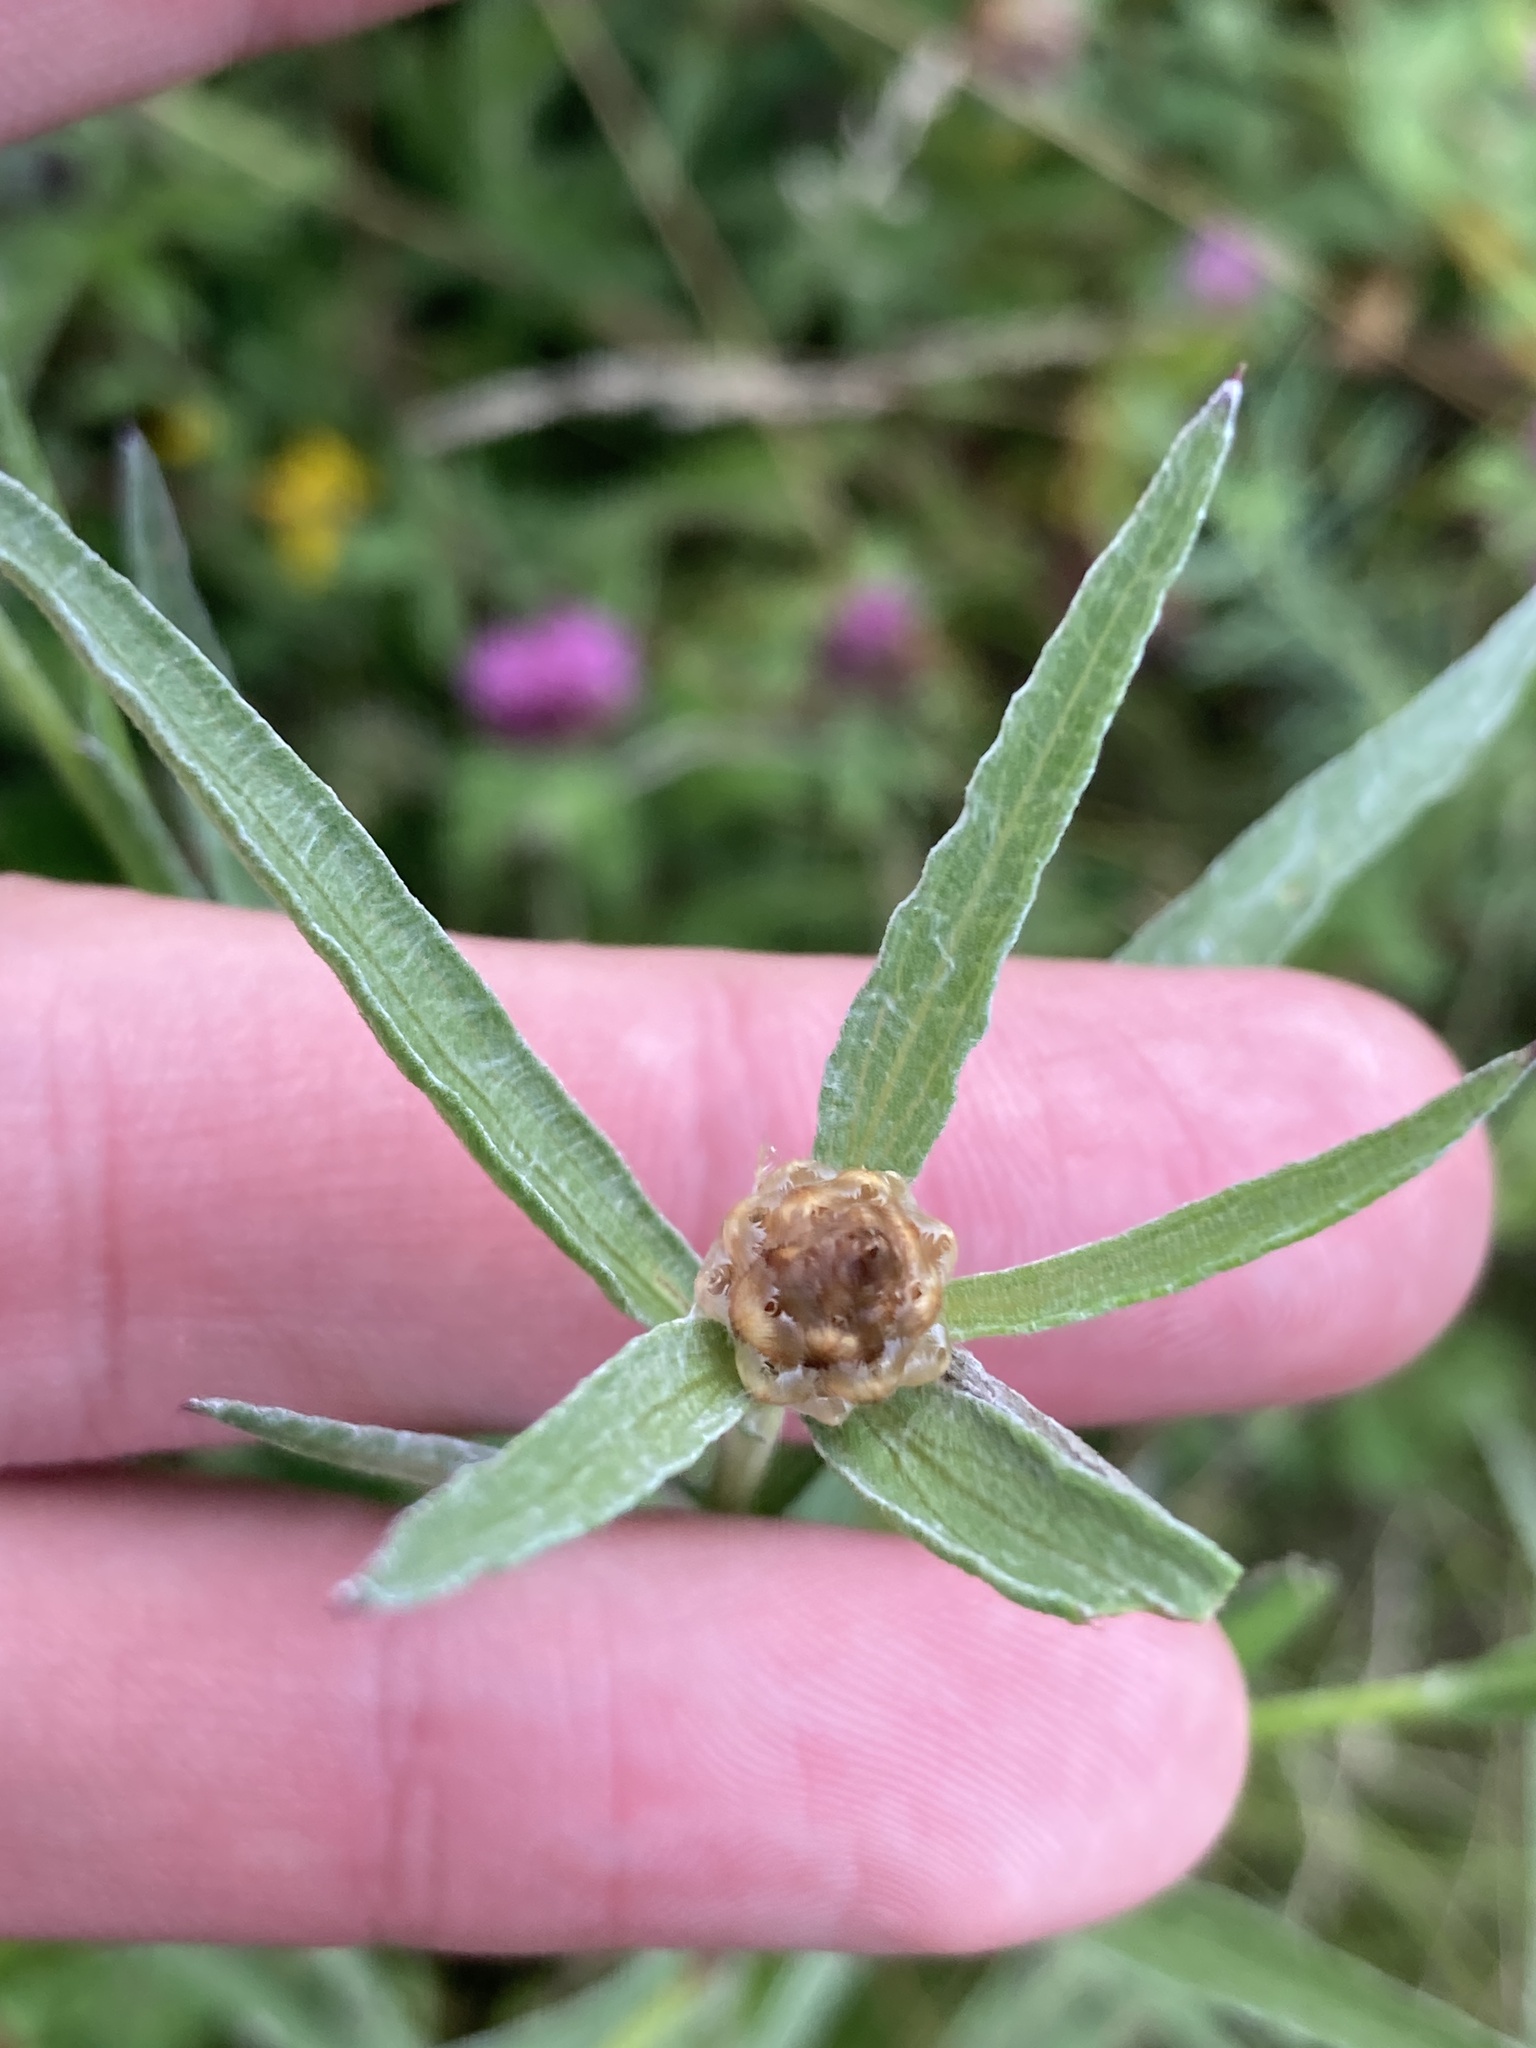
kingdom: Plantae
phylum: Tracheophyta
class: Magnoliopsida
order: Asterales
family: Asteraceae
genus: Centaurea
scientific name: Centaurea jacea
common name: Brown knapweed
